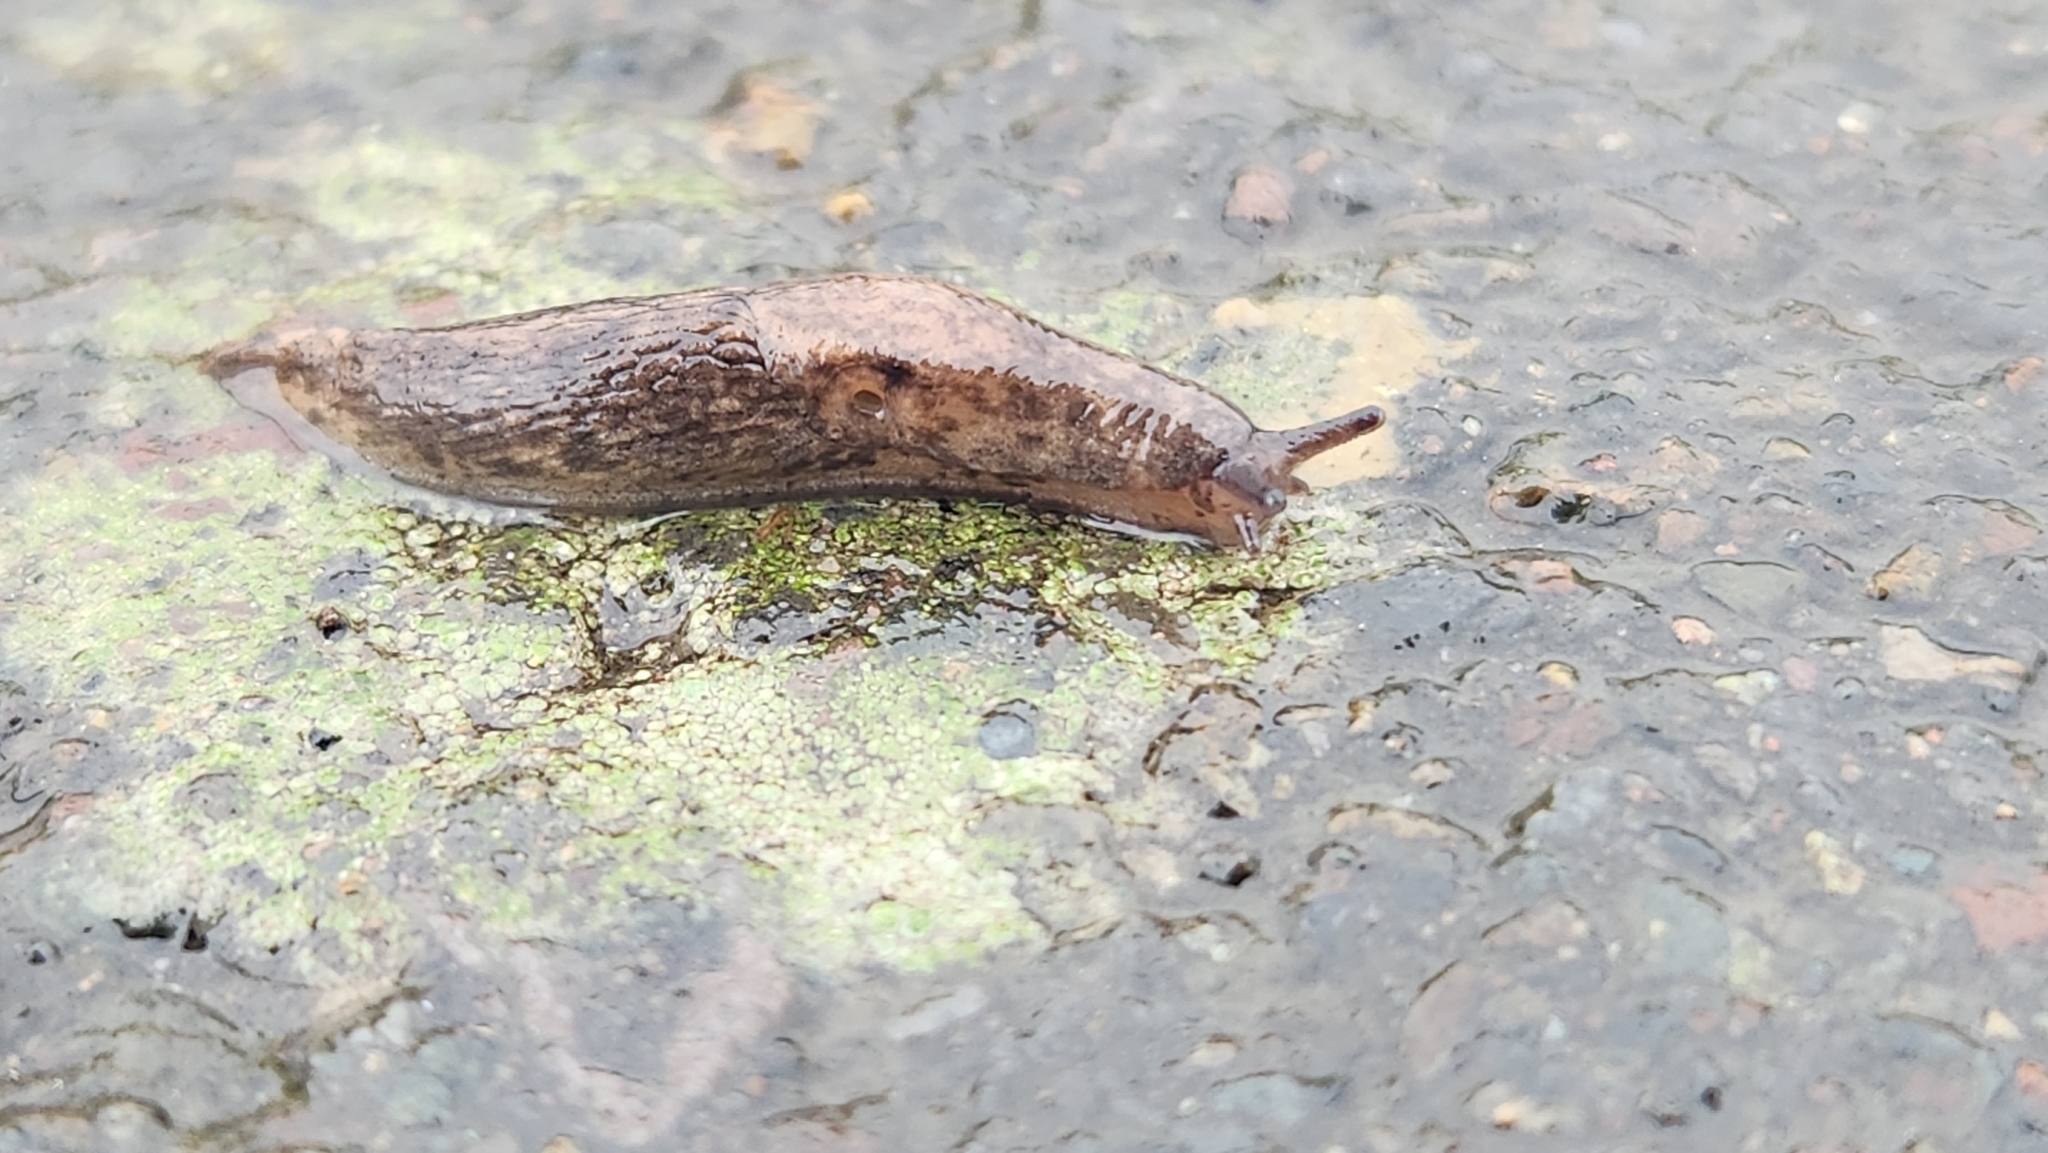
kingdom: Animalia
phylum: Mollusca
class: Gastropoda
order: Stylommatophora
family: Agriolimacidae
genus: Deroceras
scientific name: Deroceras reticulatum
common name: Gray field slug
